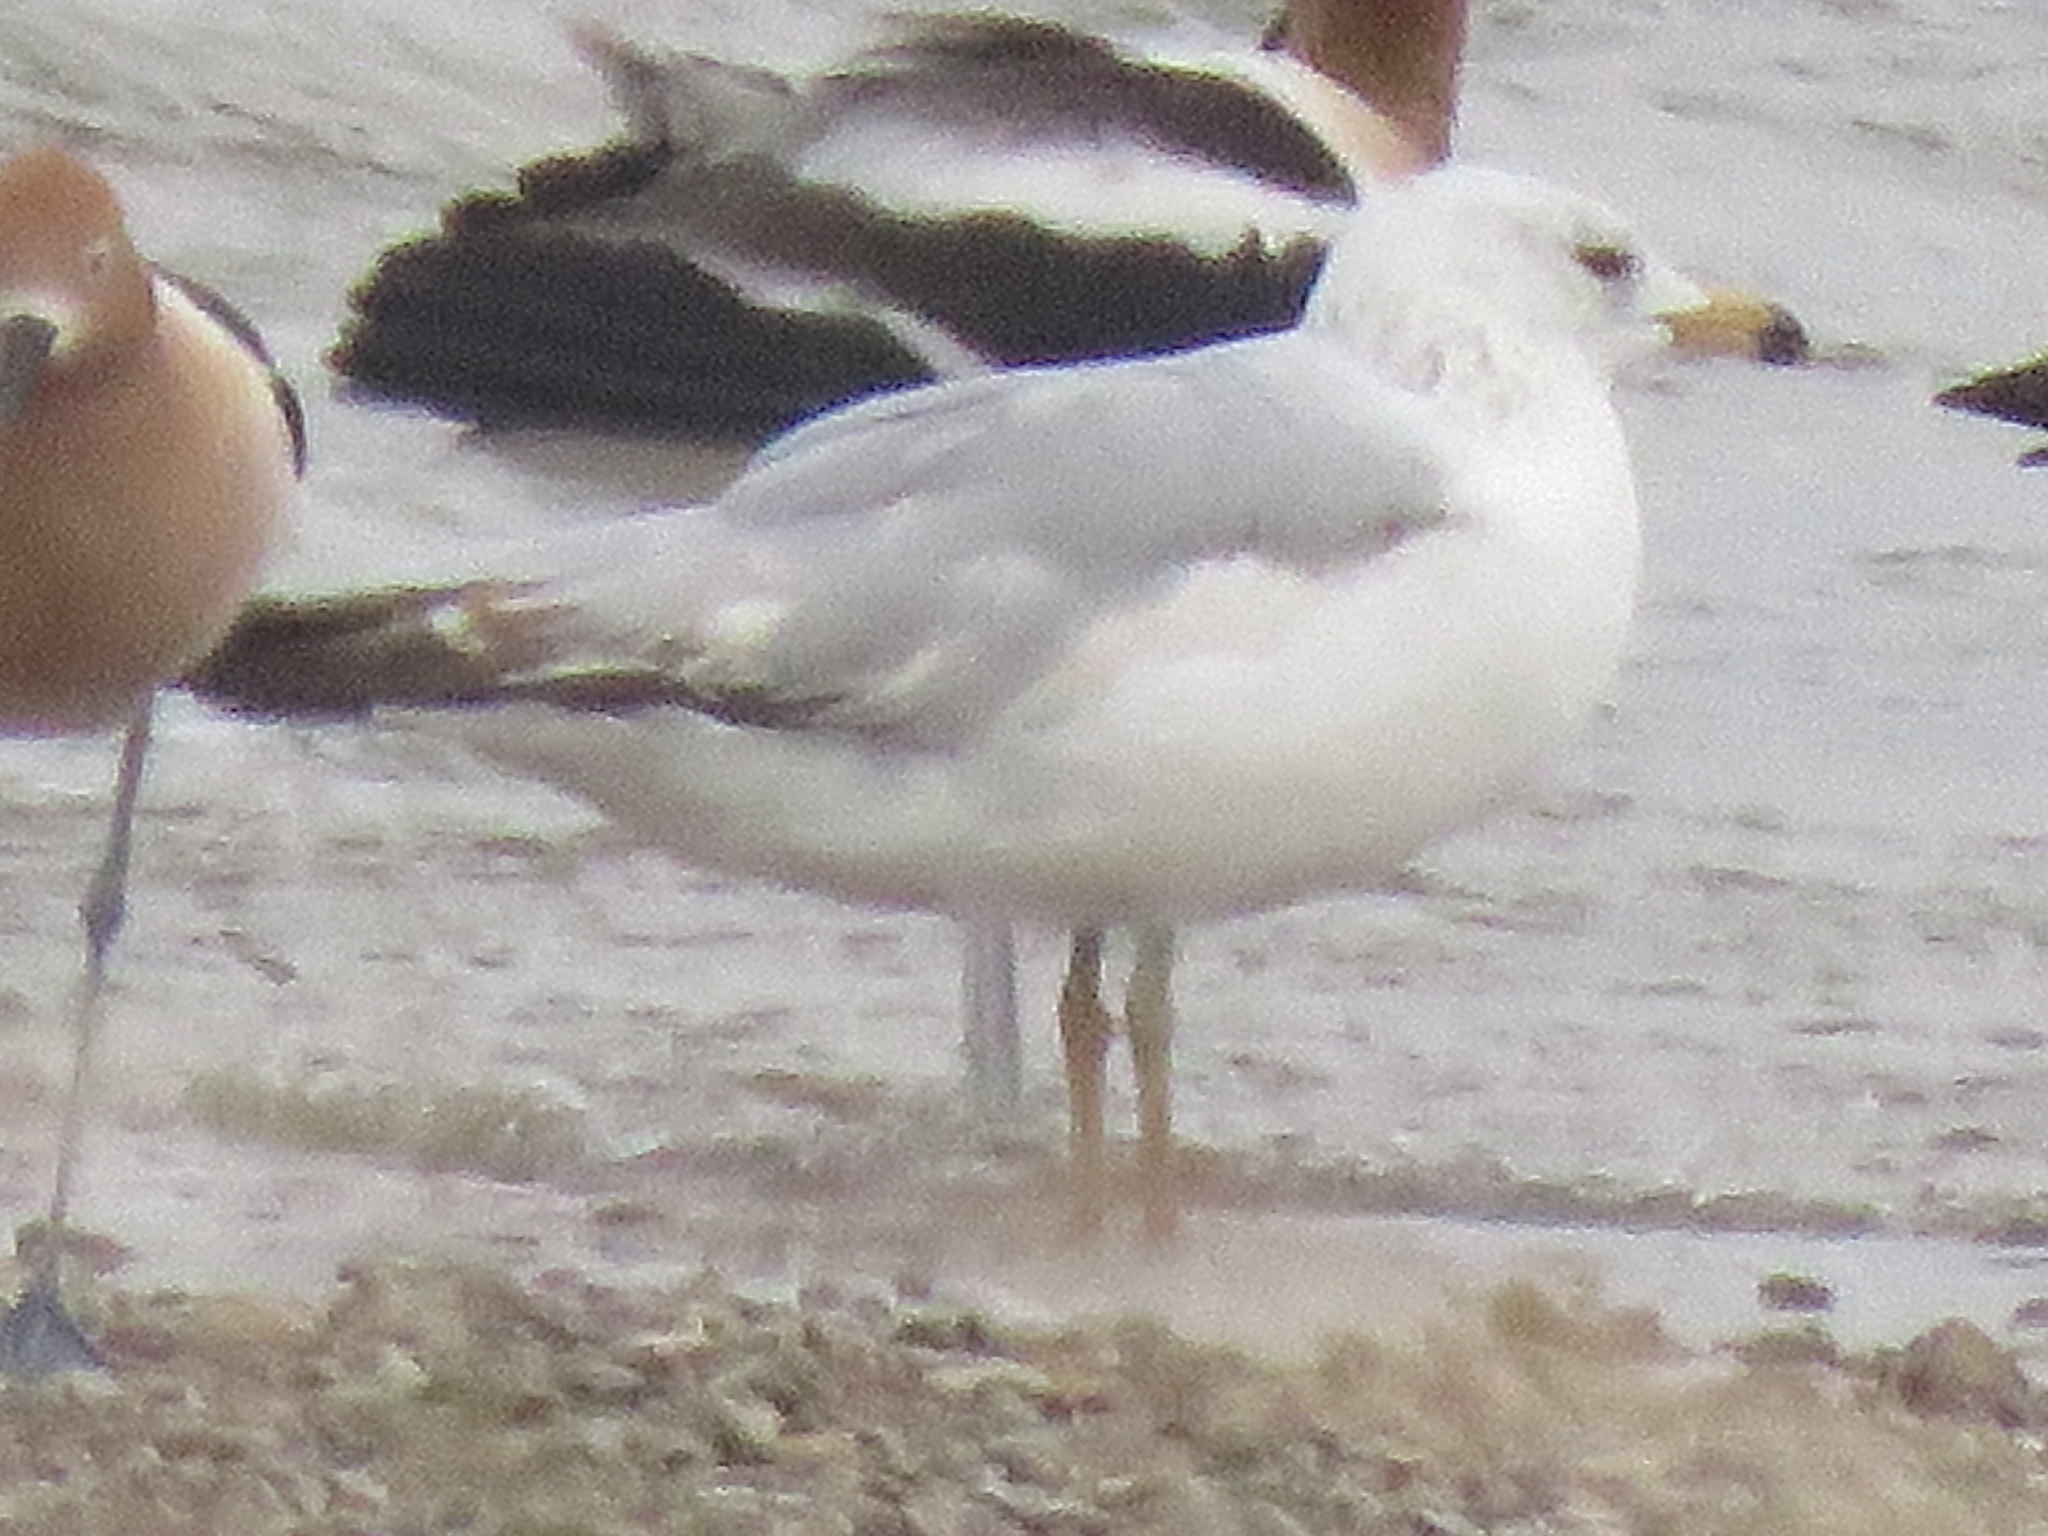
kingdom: Animalia
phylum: Chordata
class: Aves
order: Charadriiformes
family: Laridae
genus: Larus
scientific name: Larus delawarensis
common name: Ring-billed gull
